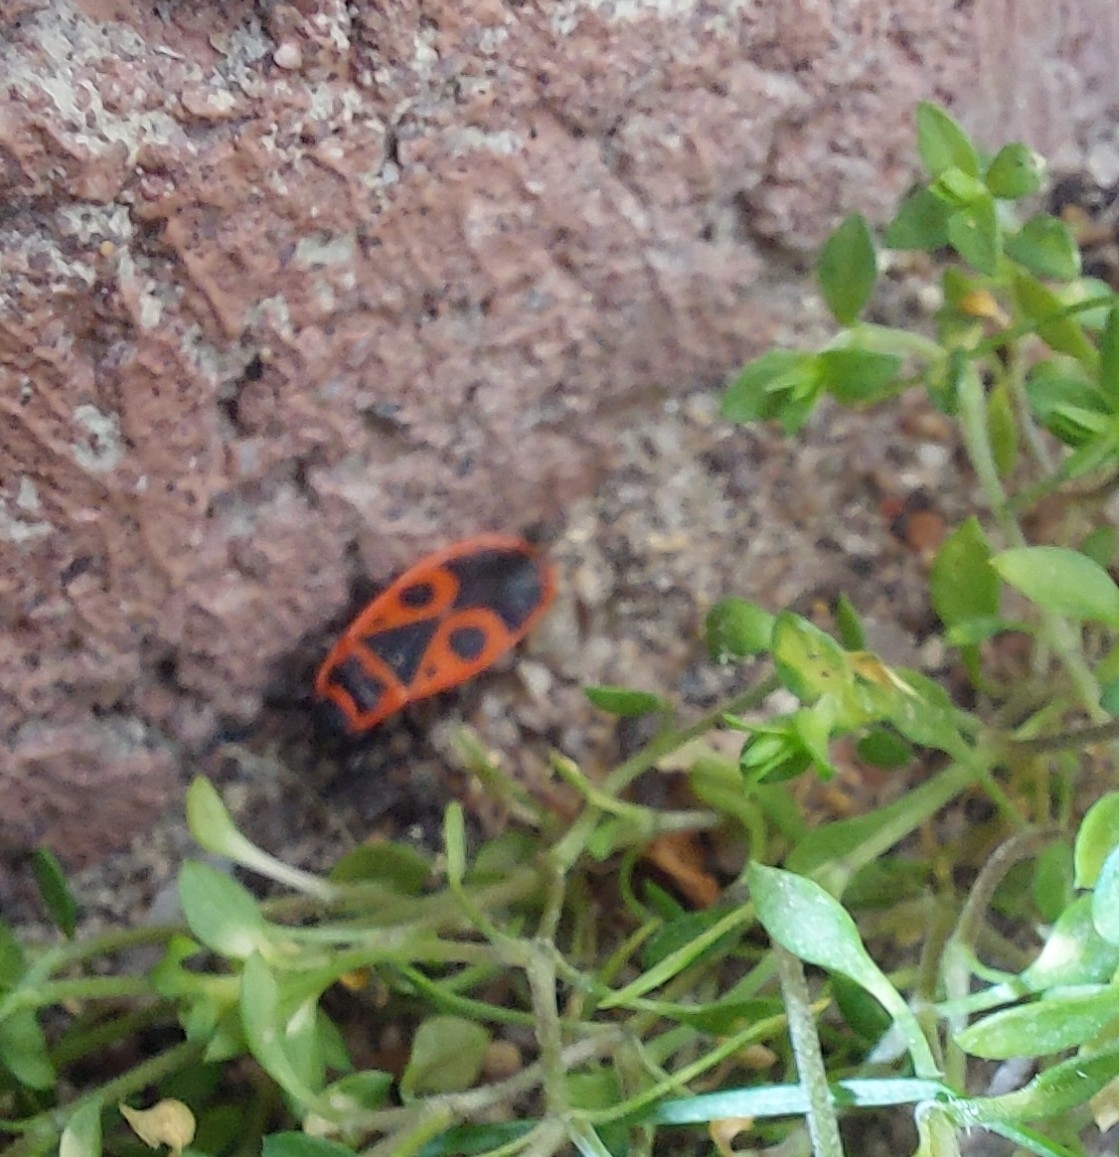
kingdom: Animalia
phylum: Arthropoda
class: Insecta
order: Hemiptera
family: Pyrrhocoridae
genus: Pyrrhocoris
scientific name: Pyrrhocoris apterus
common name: Firebug
